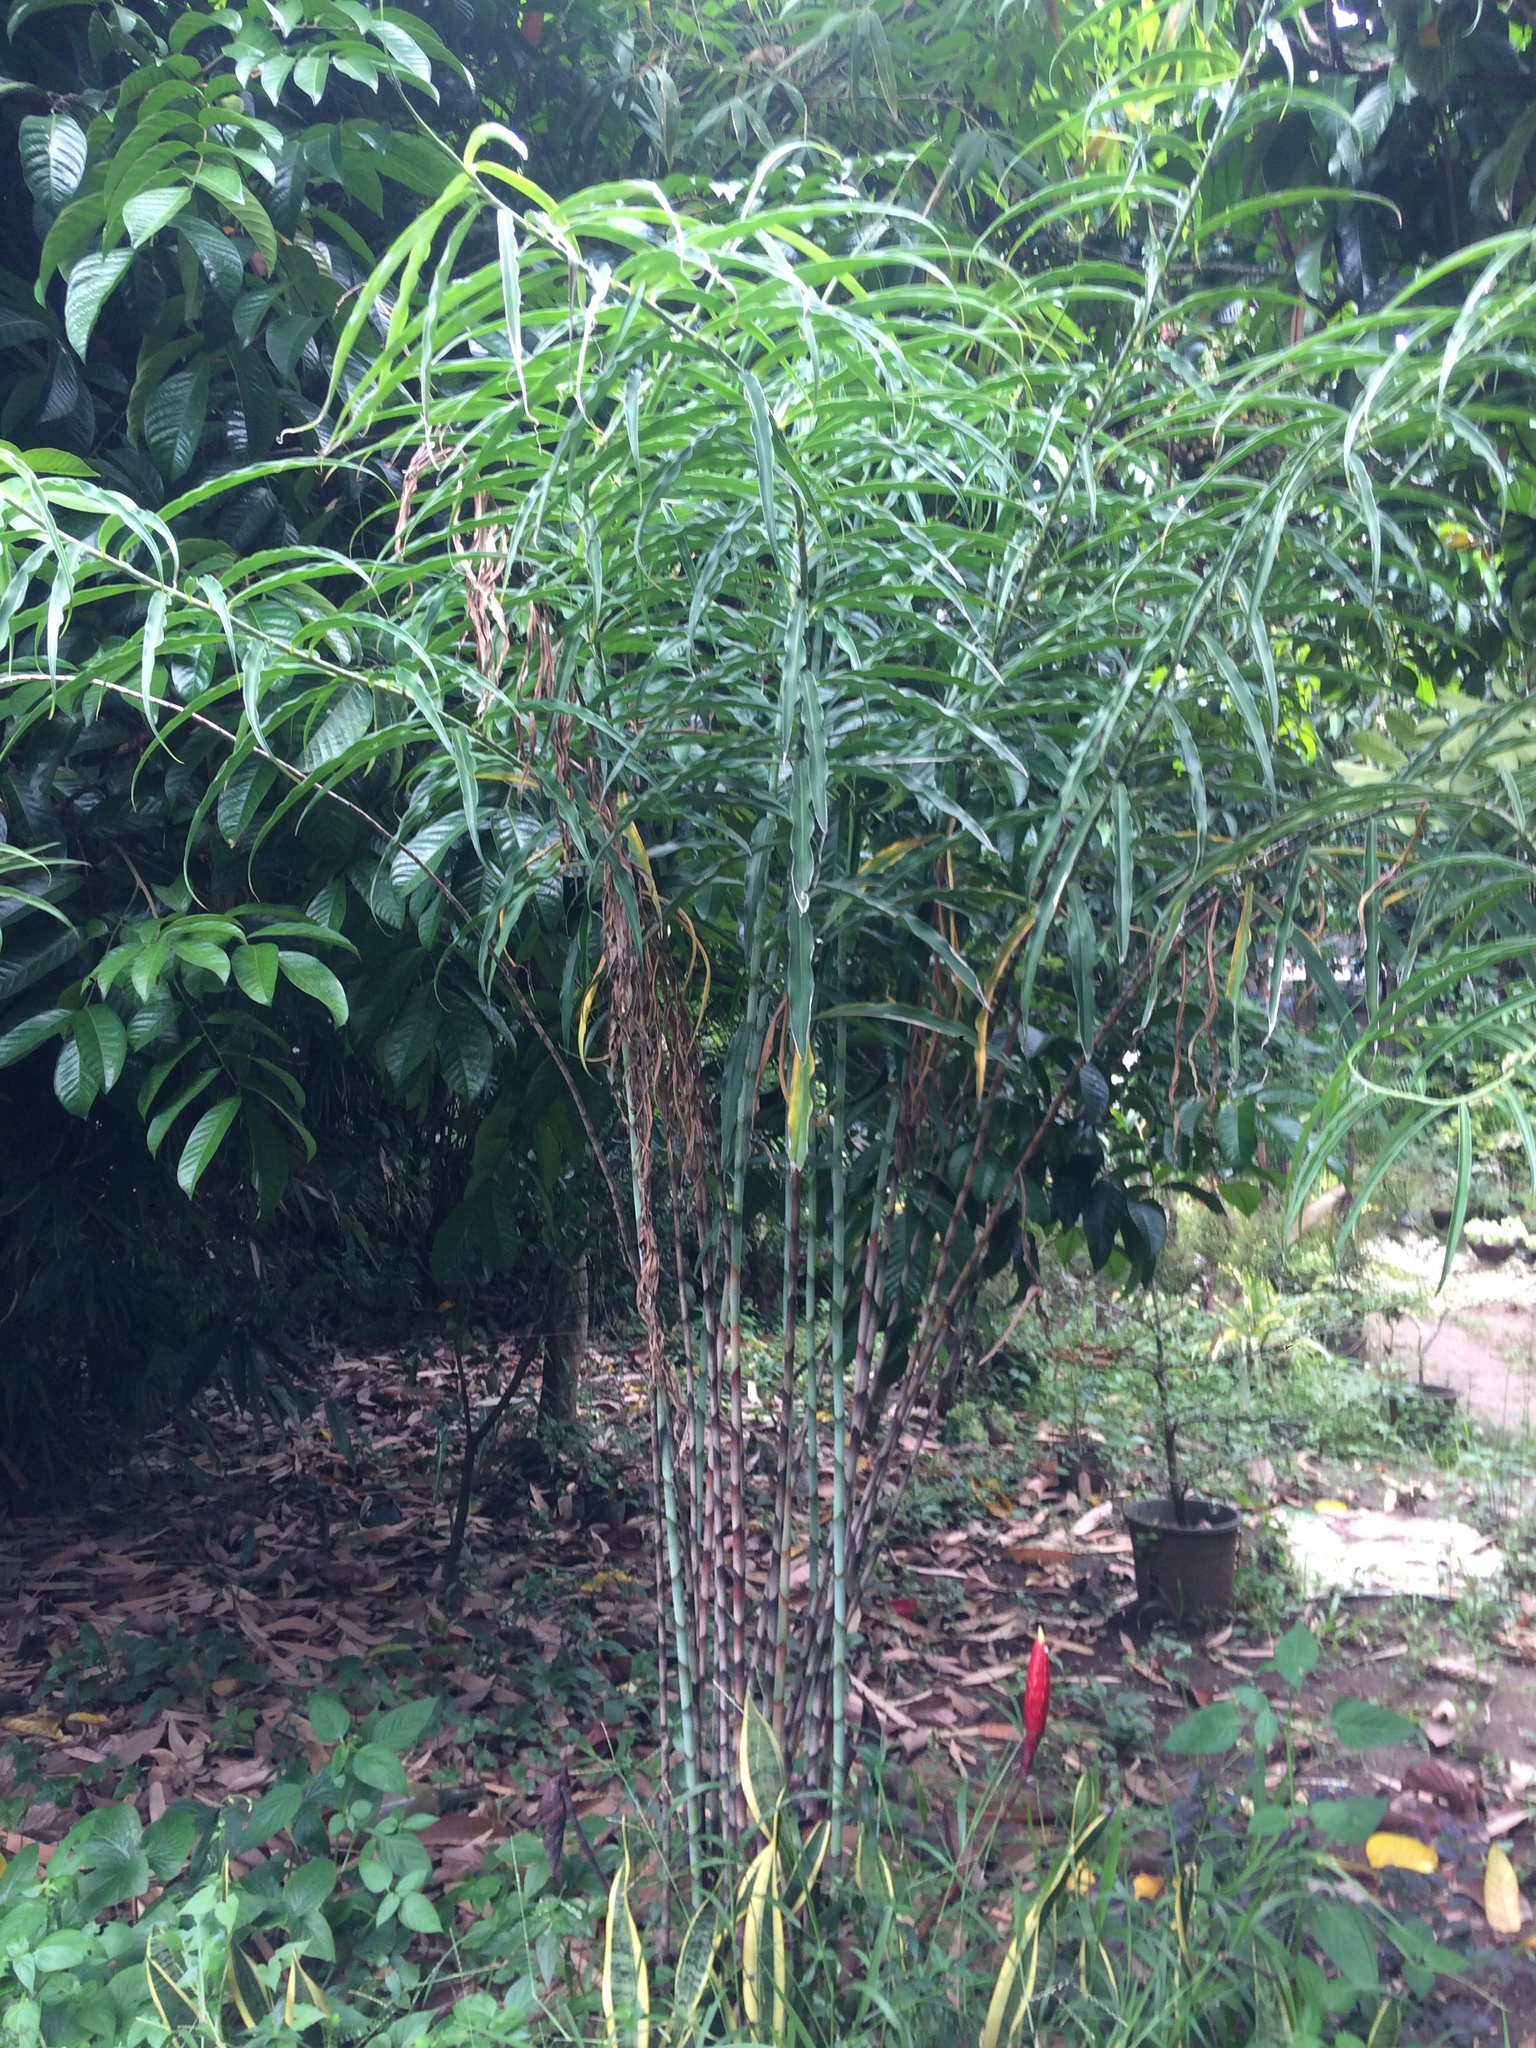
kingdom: Plantae
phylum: Tracheophyta
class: Liliopsida
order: Zingiberales
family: Costaceae
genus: Costus
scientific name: Costus stenophyllus
